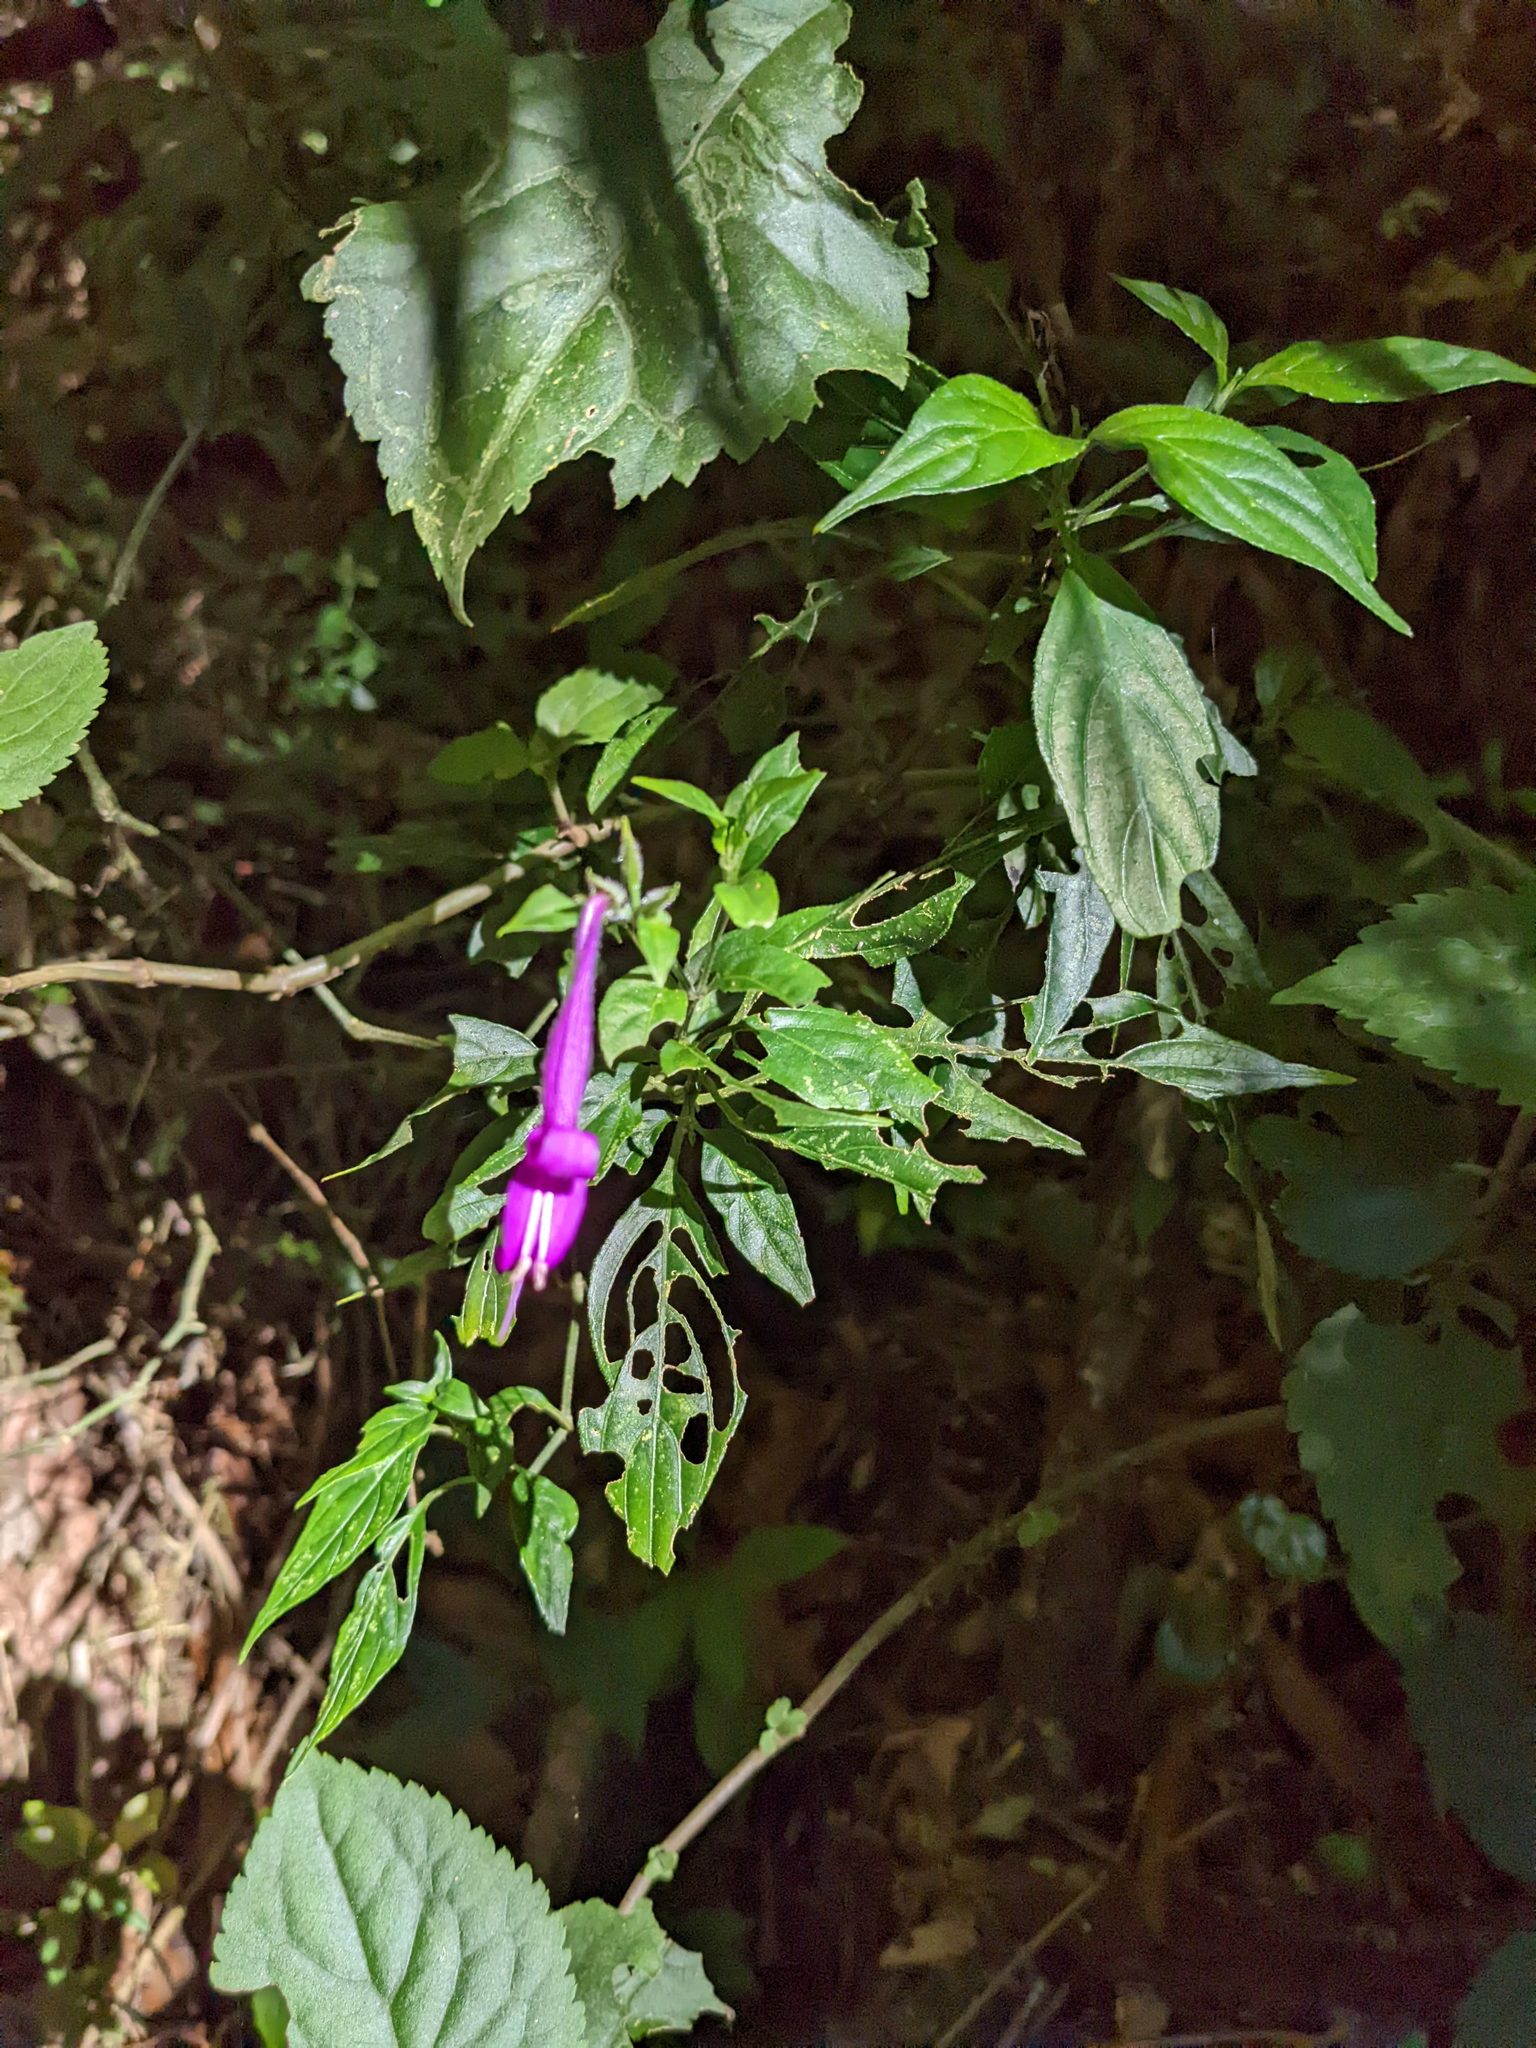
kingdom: Plantae
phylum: Tracheophyta
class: Magnoliopsida
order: Lamiales
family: Acanthaceae
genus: Dicliptera
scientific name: Dicliptera iopus
